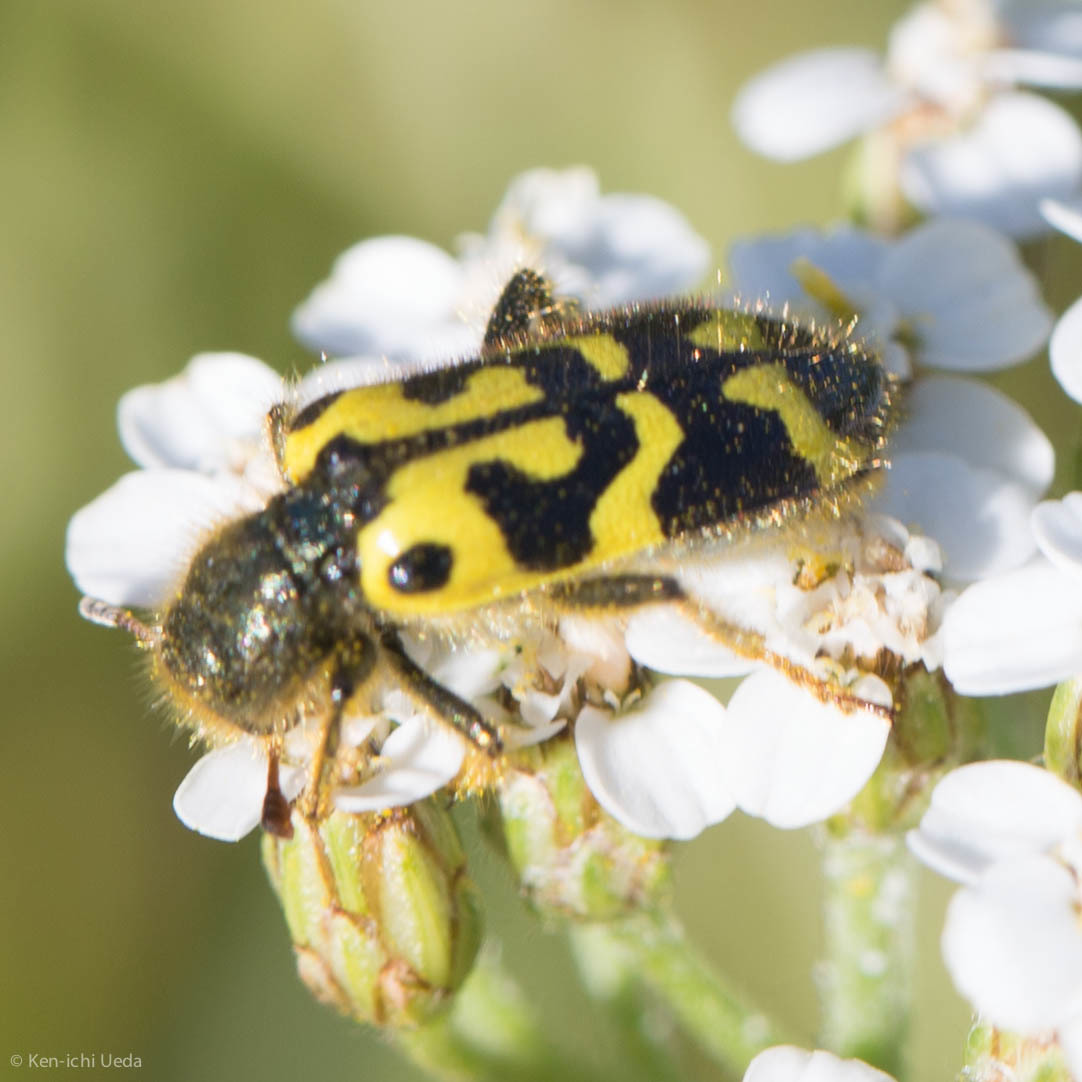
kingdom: Animalia
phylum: Arthropoda
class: Insecta
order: Coleoptera
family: Cleridae
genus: Trichodes
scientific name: Trichodes ornatus
